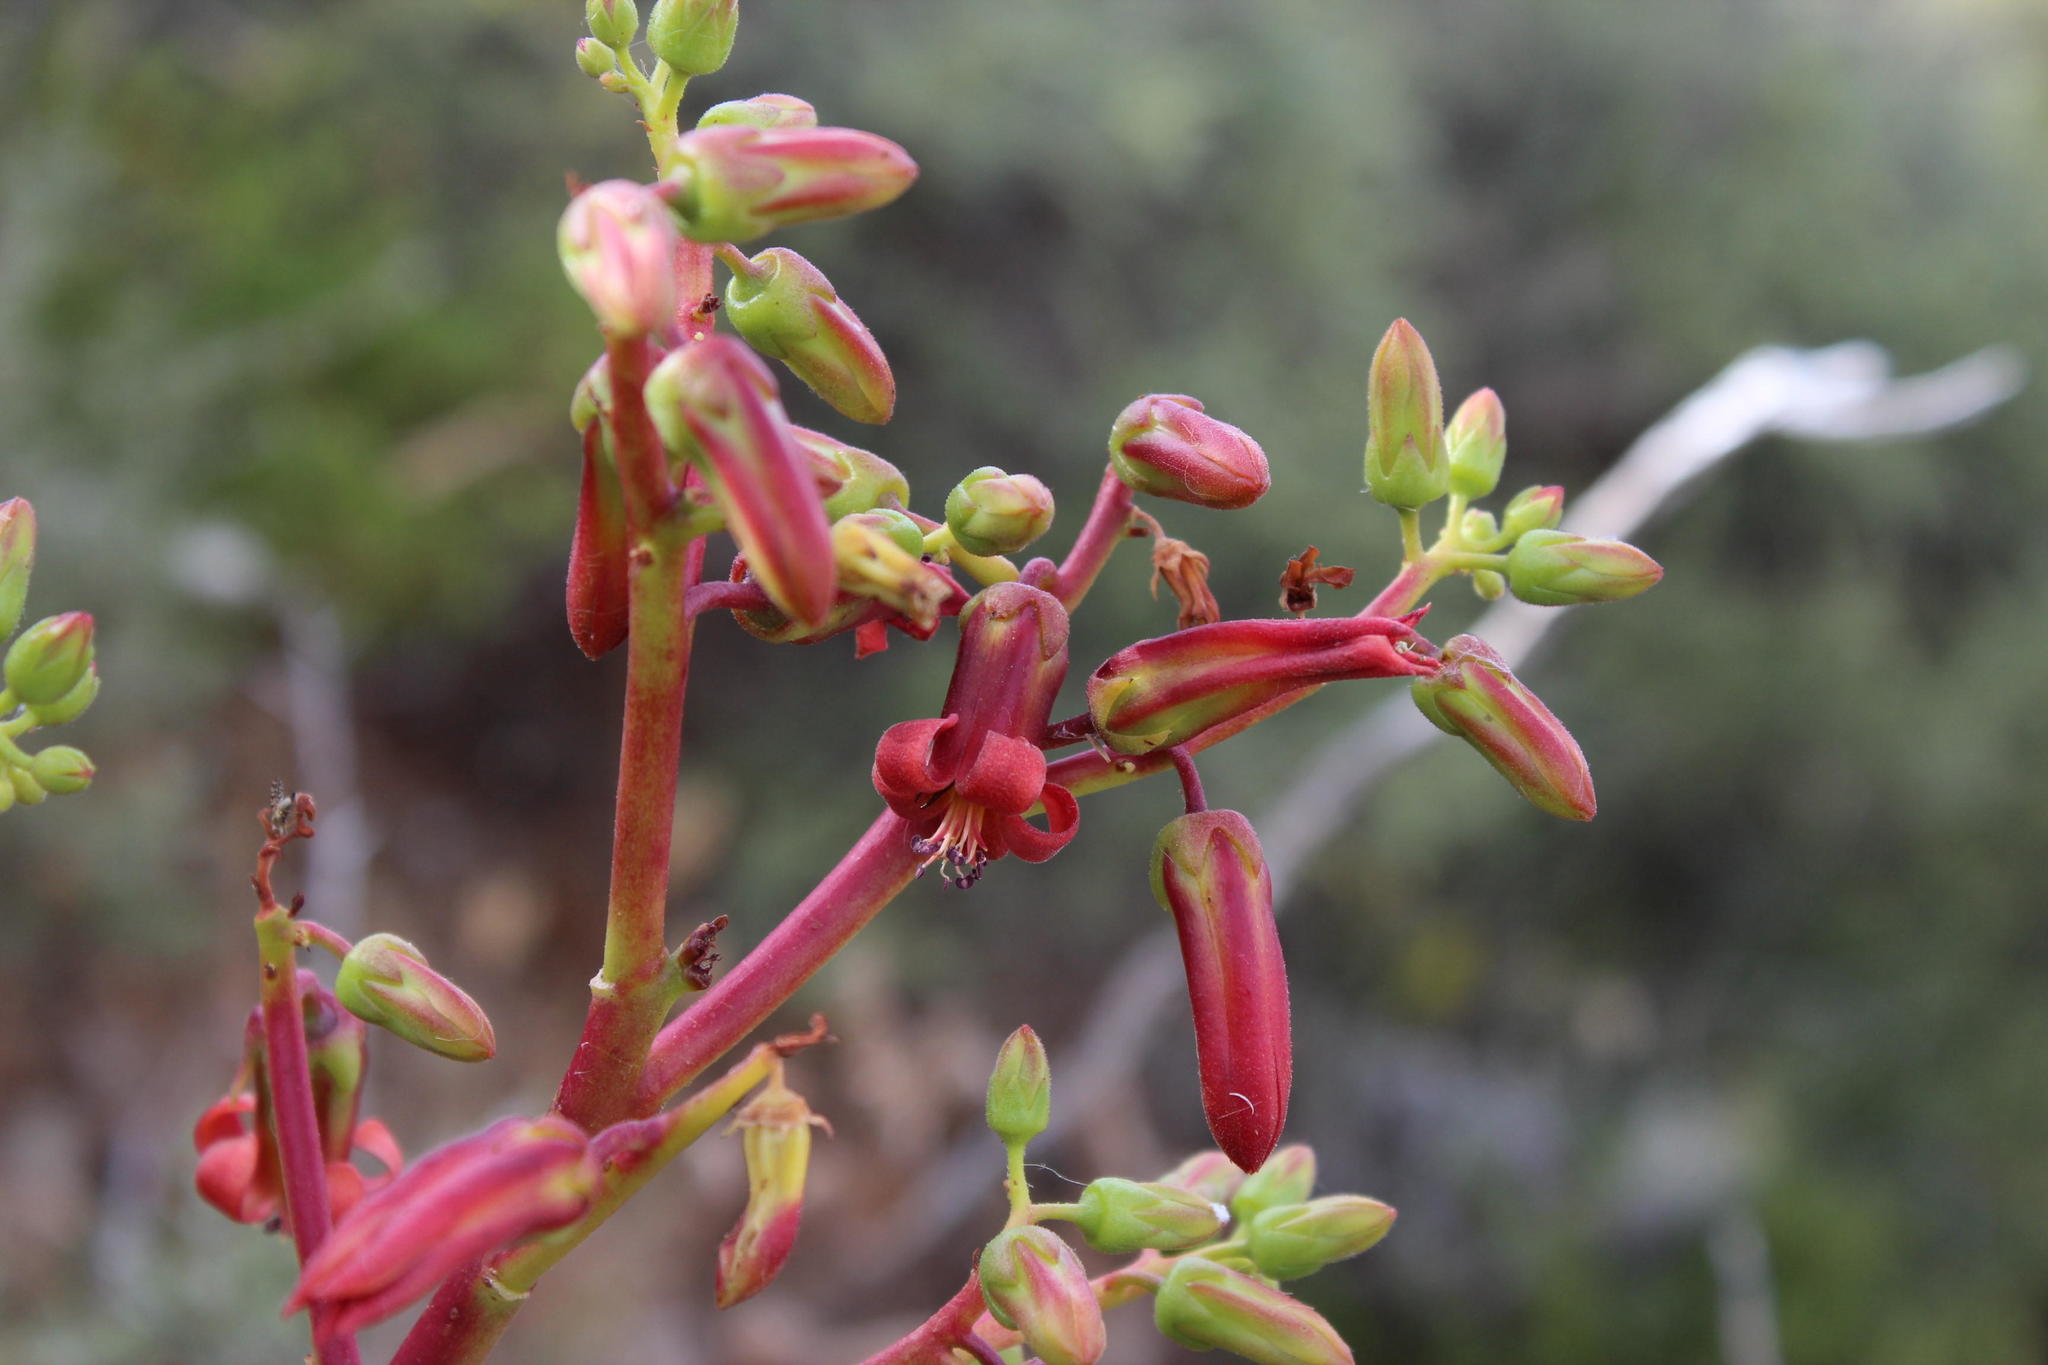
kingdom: Plantae
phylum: Tracheophyta
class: Magnoliopsida
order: Saxifragales
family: Crassulaceae
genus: Tylecodon
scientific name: Tylecodon paniculatus
